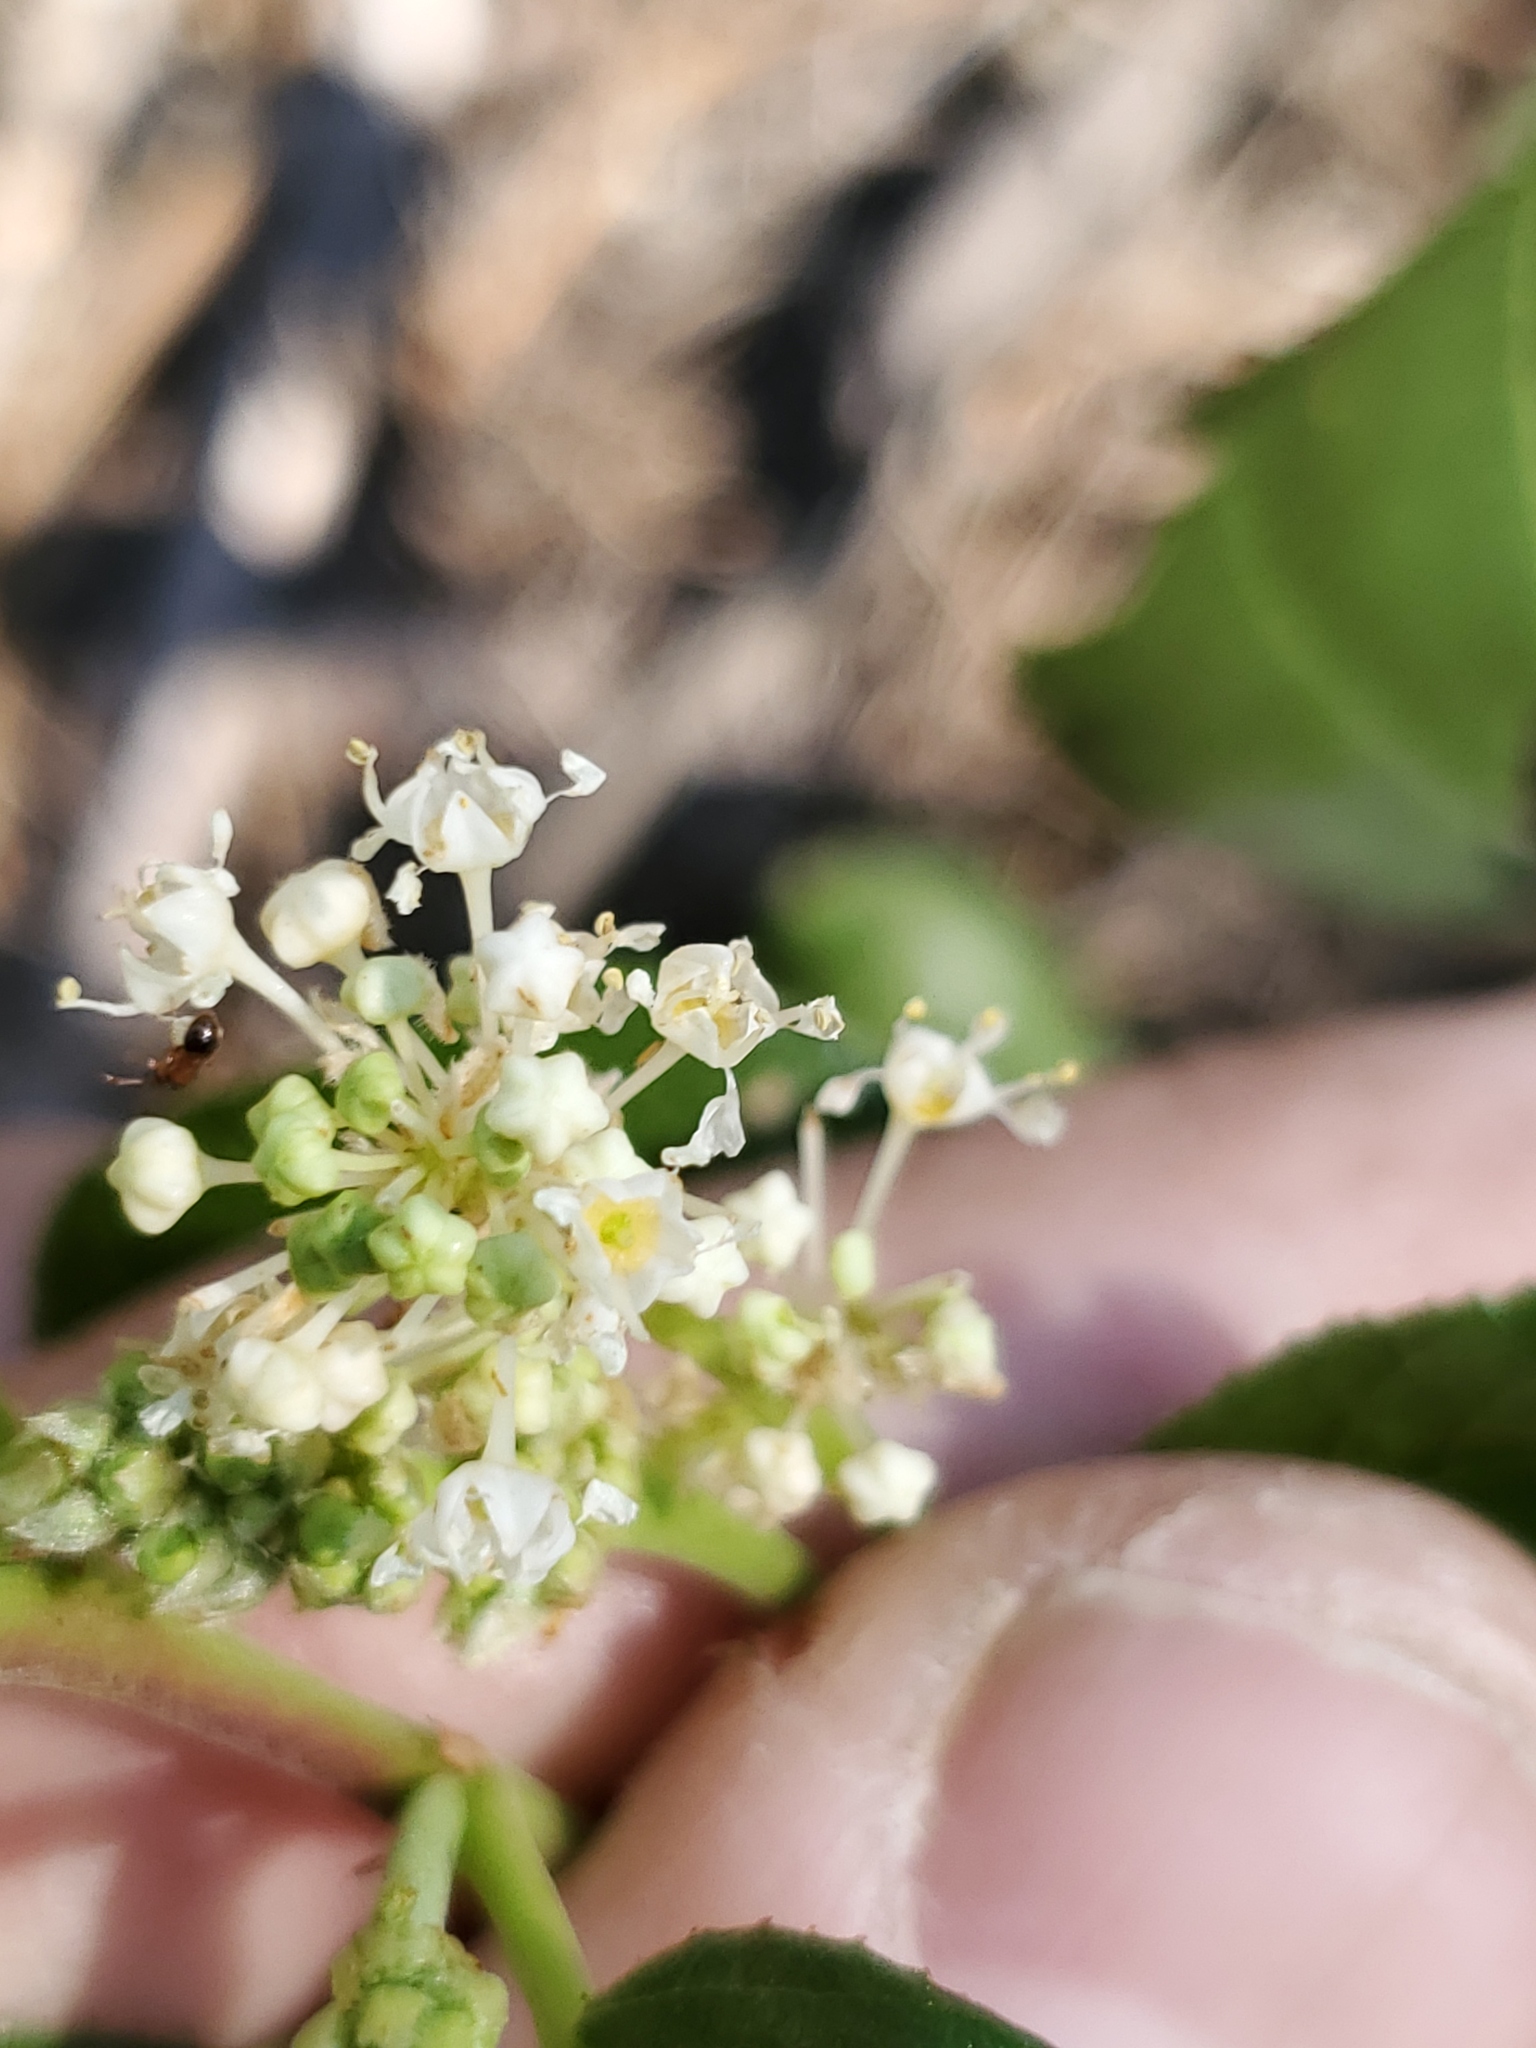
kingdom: Plantae
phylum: Tracheophyta
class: Magnoliopsida
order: Rosales
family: Rhamnaceae
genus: Ceanothus
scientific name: Ceanothus velutinus
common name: Snowbrush
